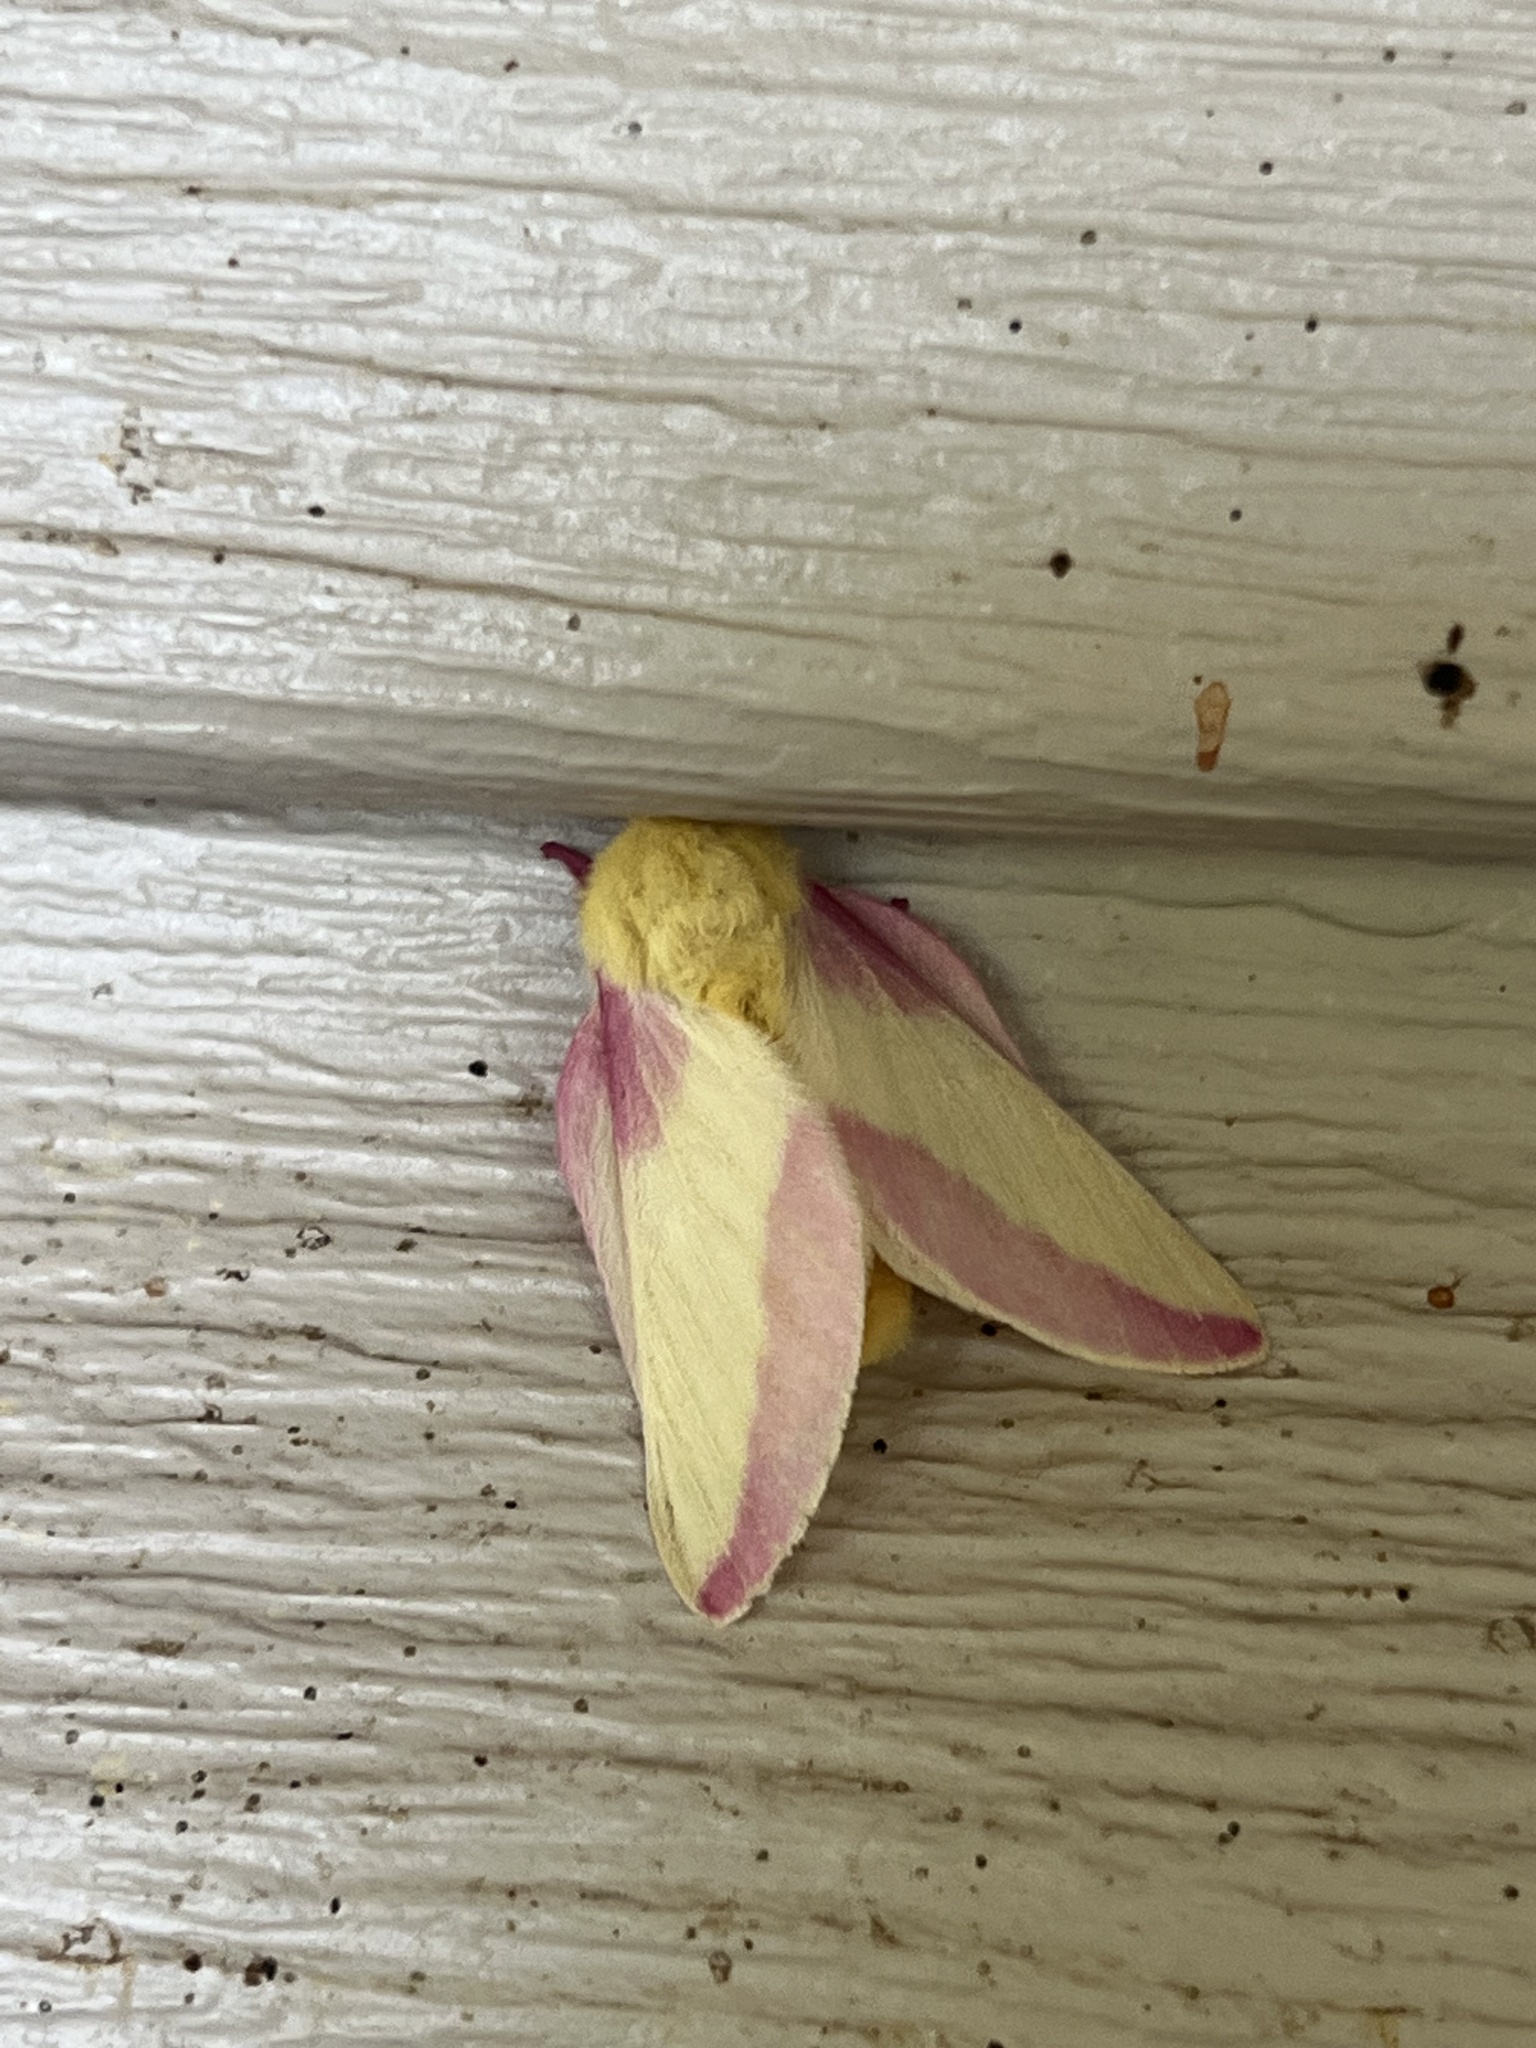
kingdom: Animalia
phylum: Arthropoda
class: Insecta
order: Lepidoptera
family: Saturniidae
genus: Dryocampa
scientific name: Dryocampa rubicunda
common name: Rosy maple moth
